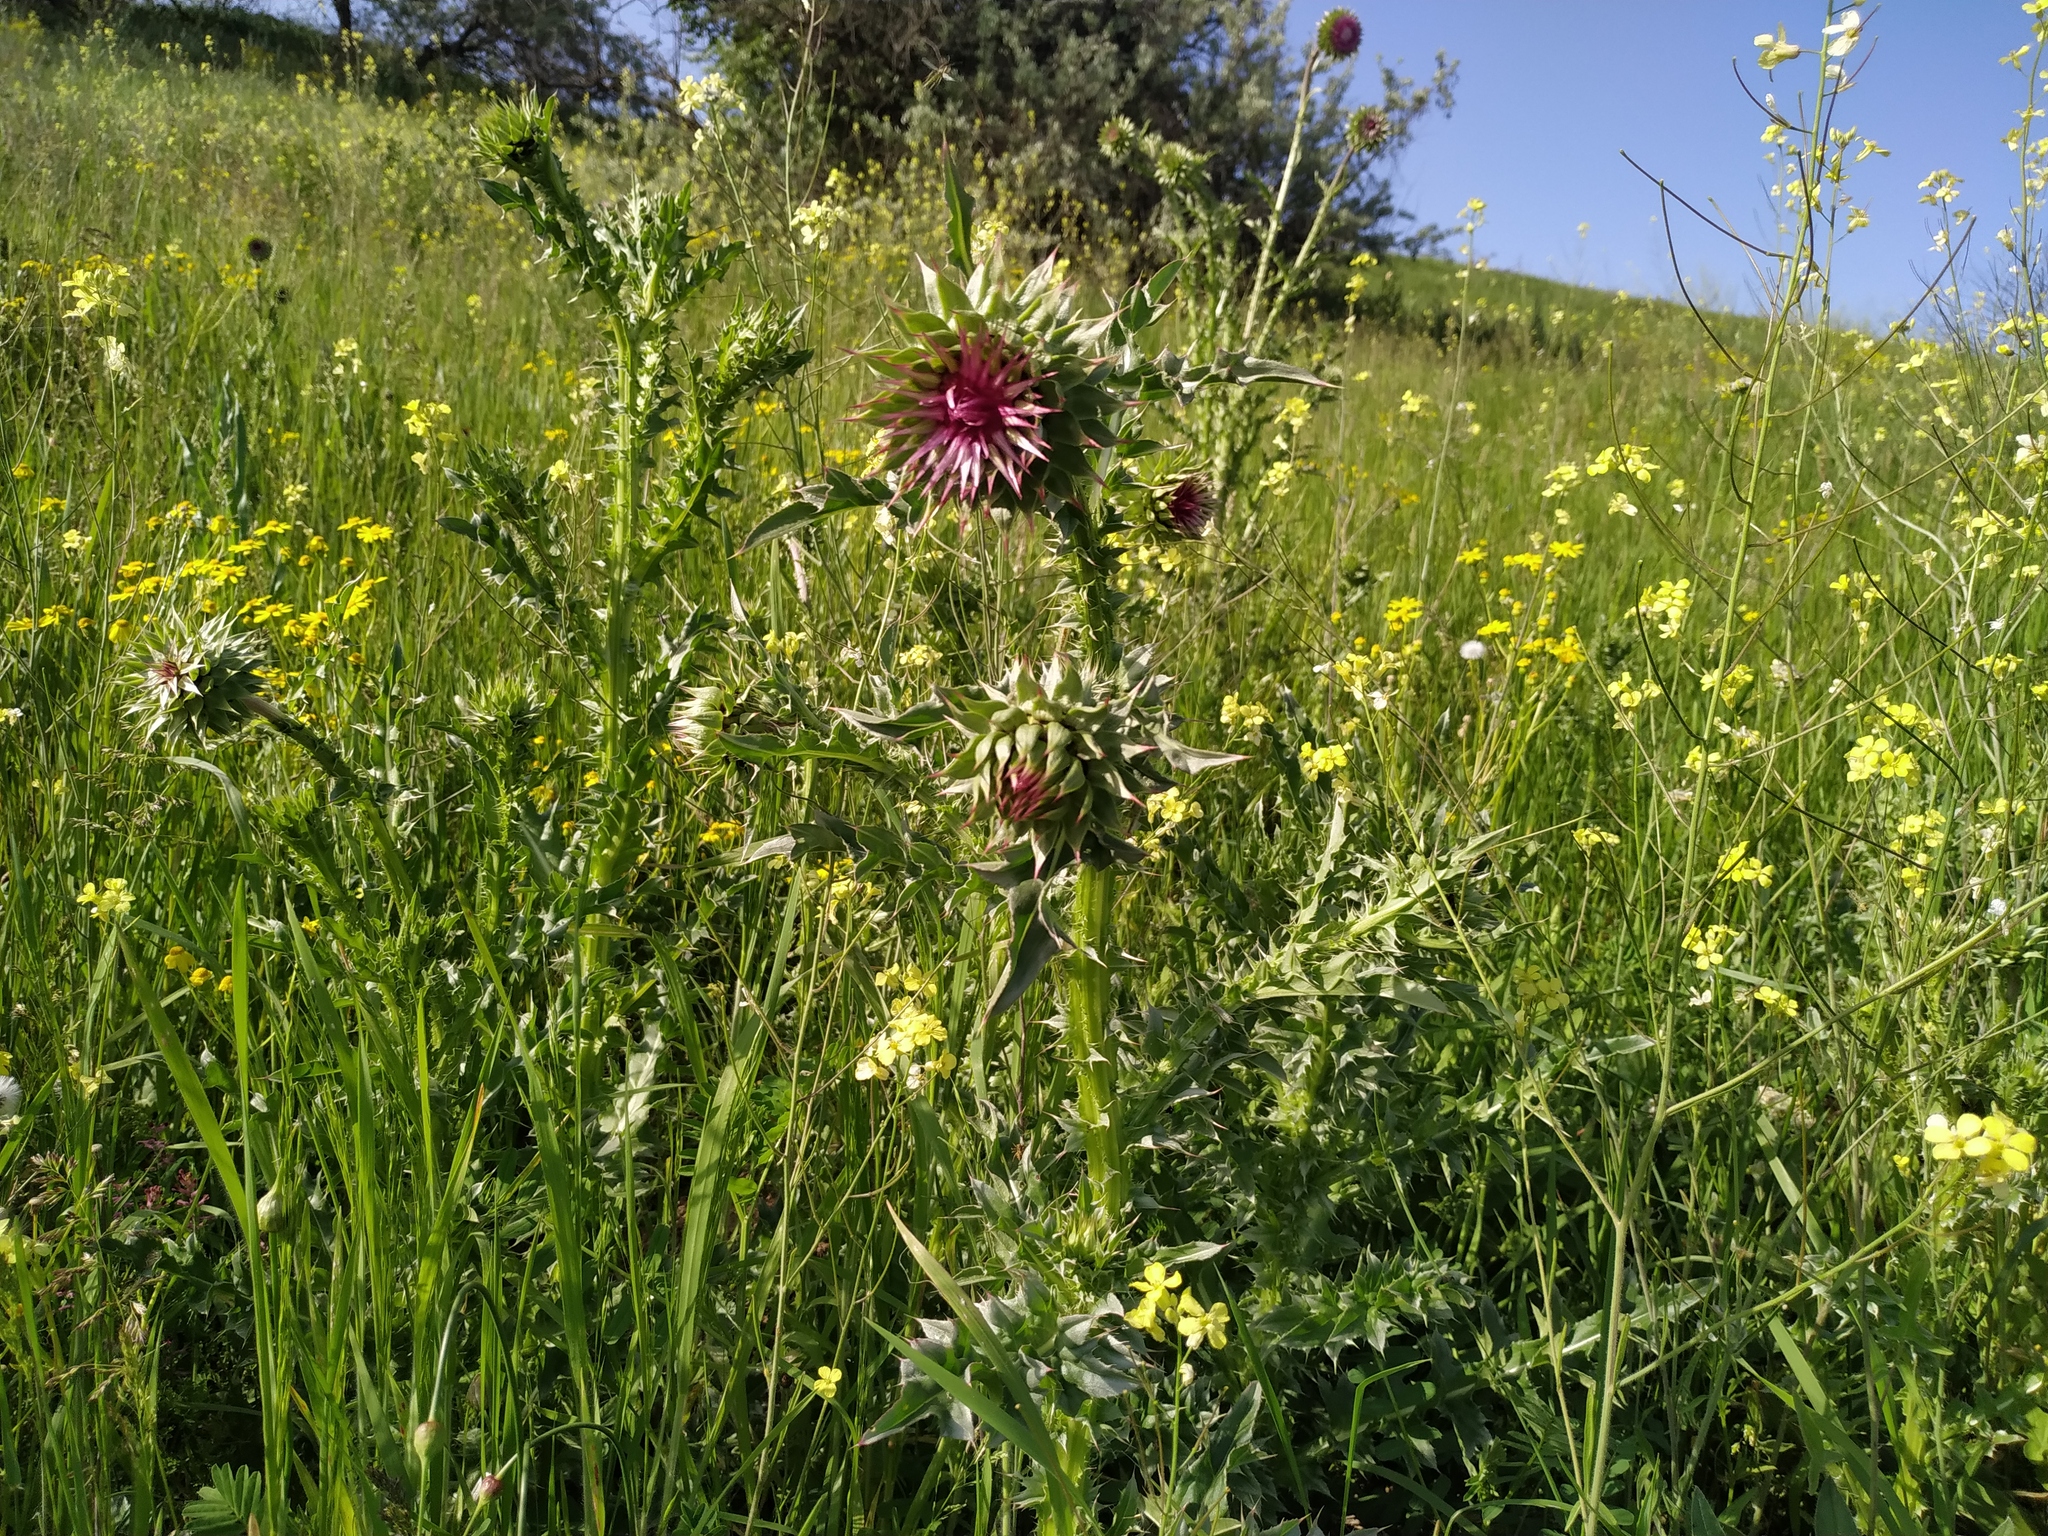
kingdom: Plantae
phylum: Tracheophyta
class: Magnoliopsida
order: Asterales
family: Asteraceae
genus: Carduus
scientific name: Carduus nutans
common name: Musk thistle
